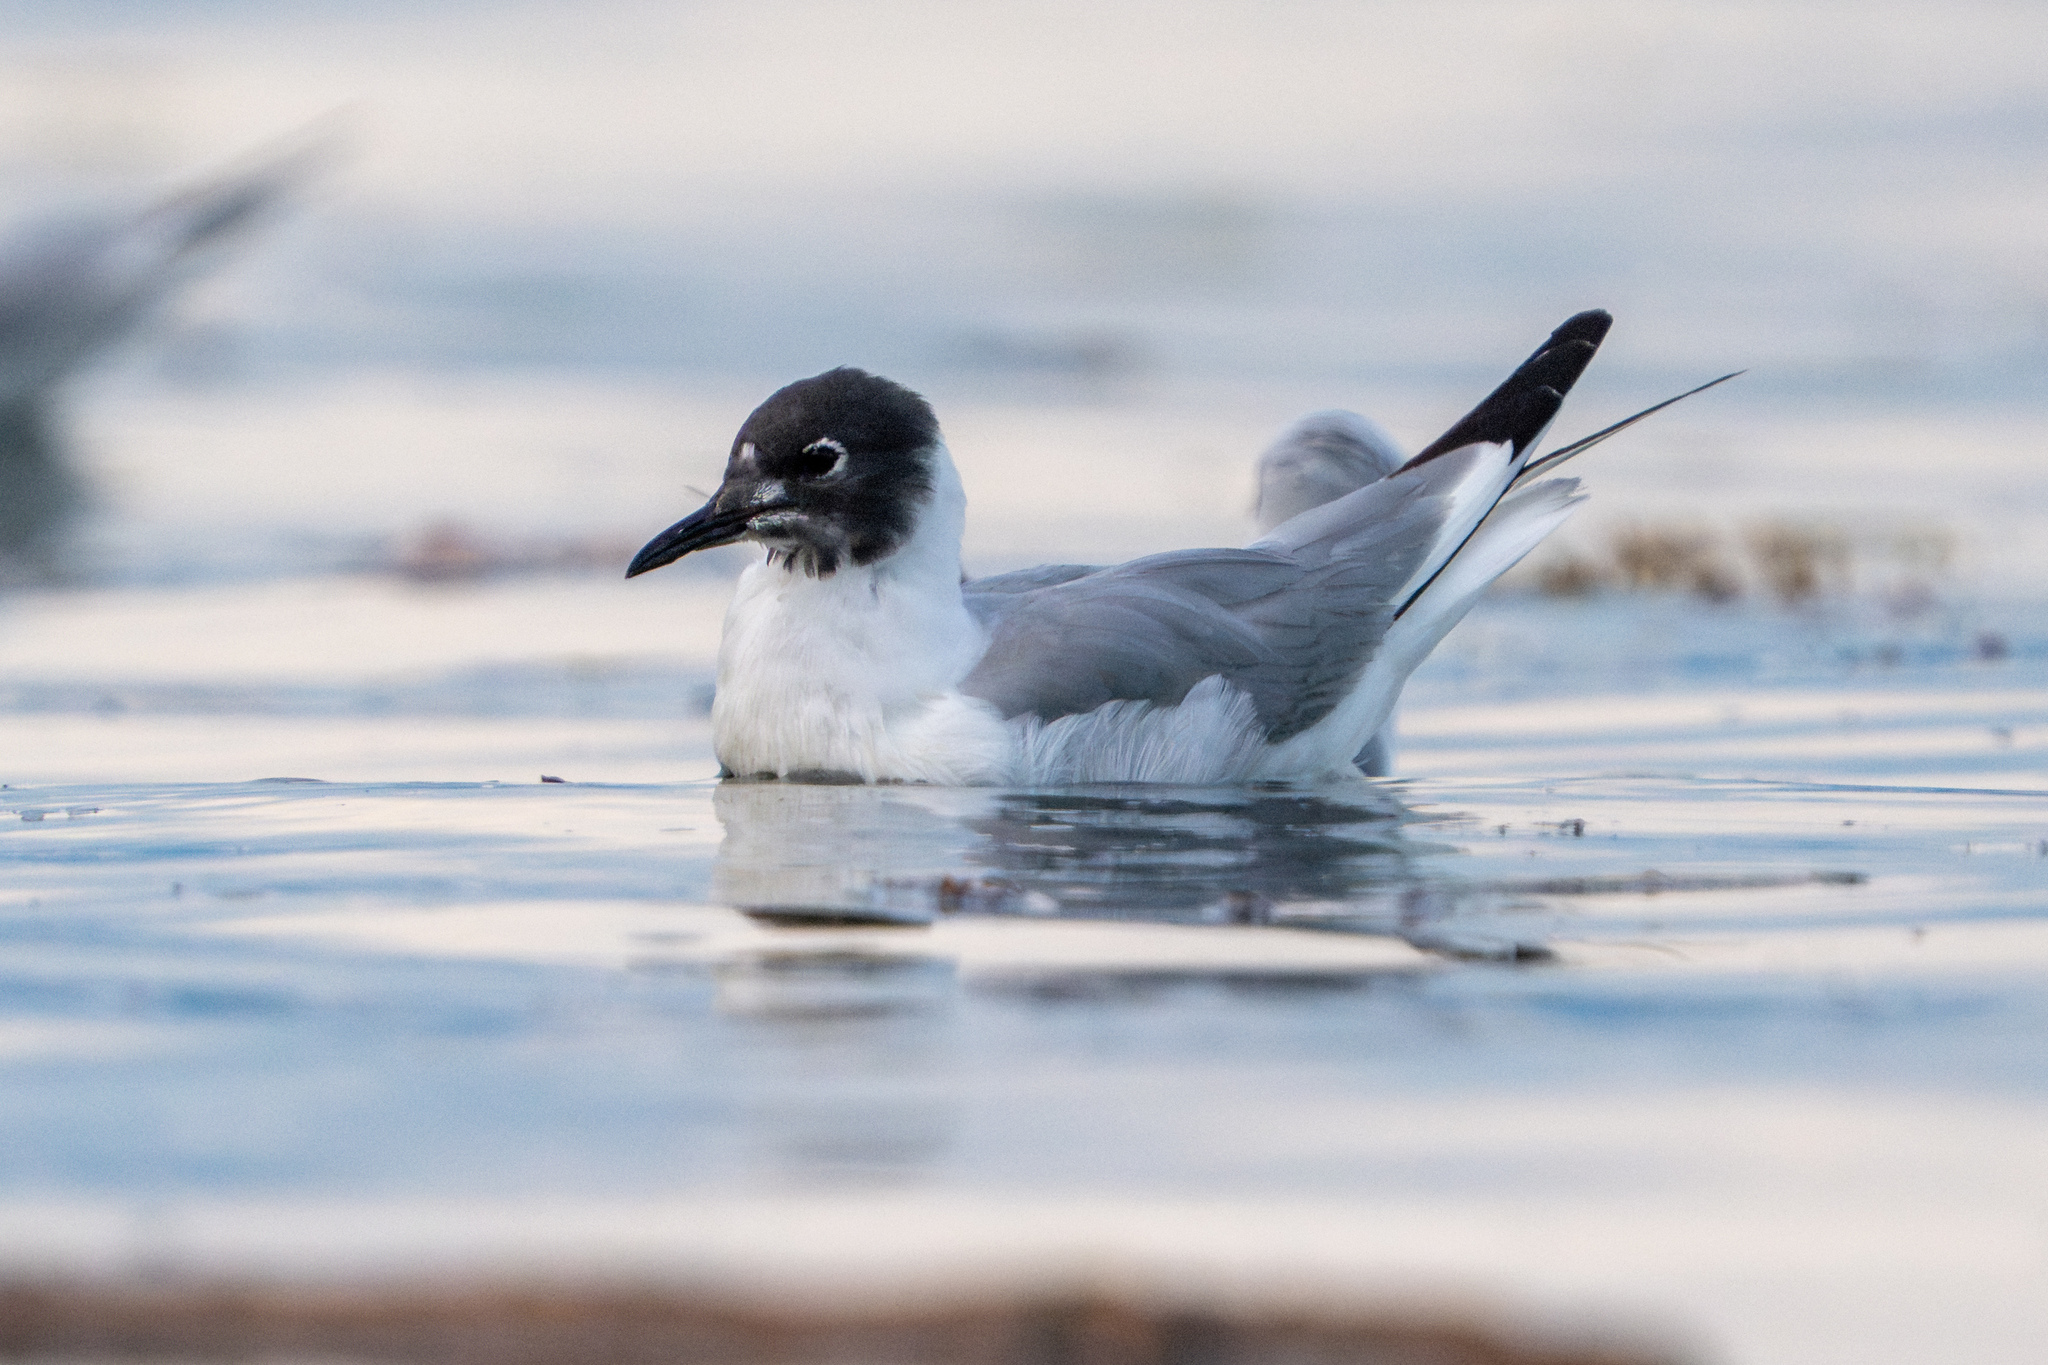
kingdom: Animalia
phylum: Chordata
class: Aves
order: Charadriiformes
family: Laridae
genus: Chroicocephalus
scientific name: Chroicocephalus philadelphia
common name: Bonaparte's gull
